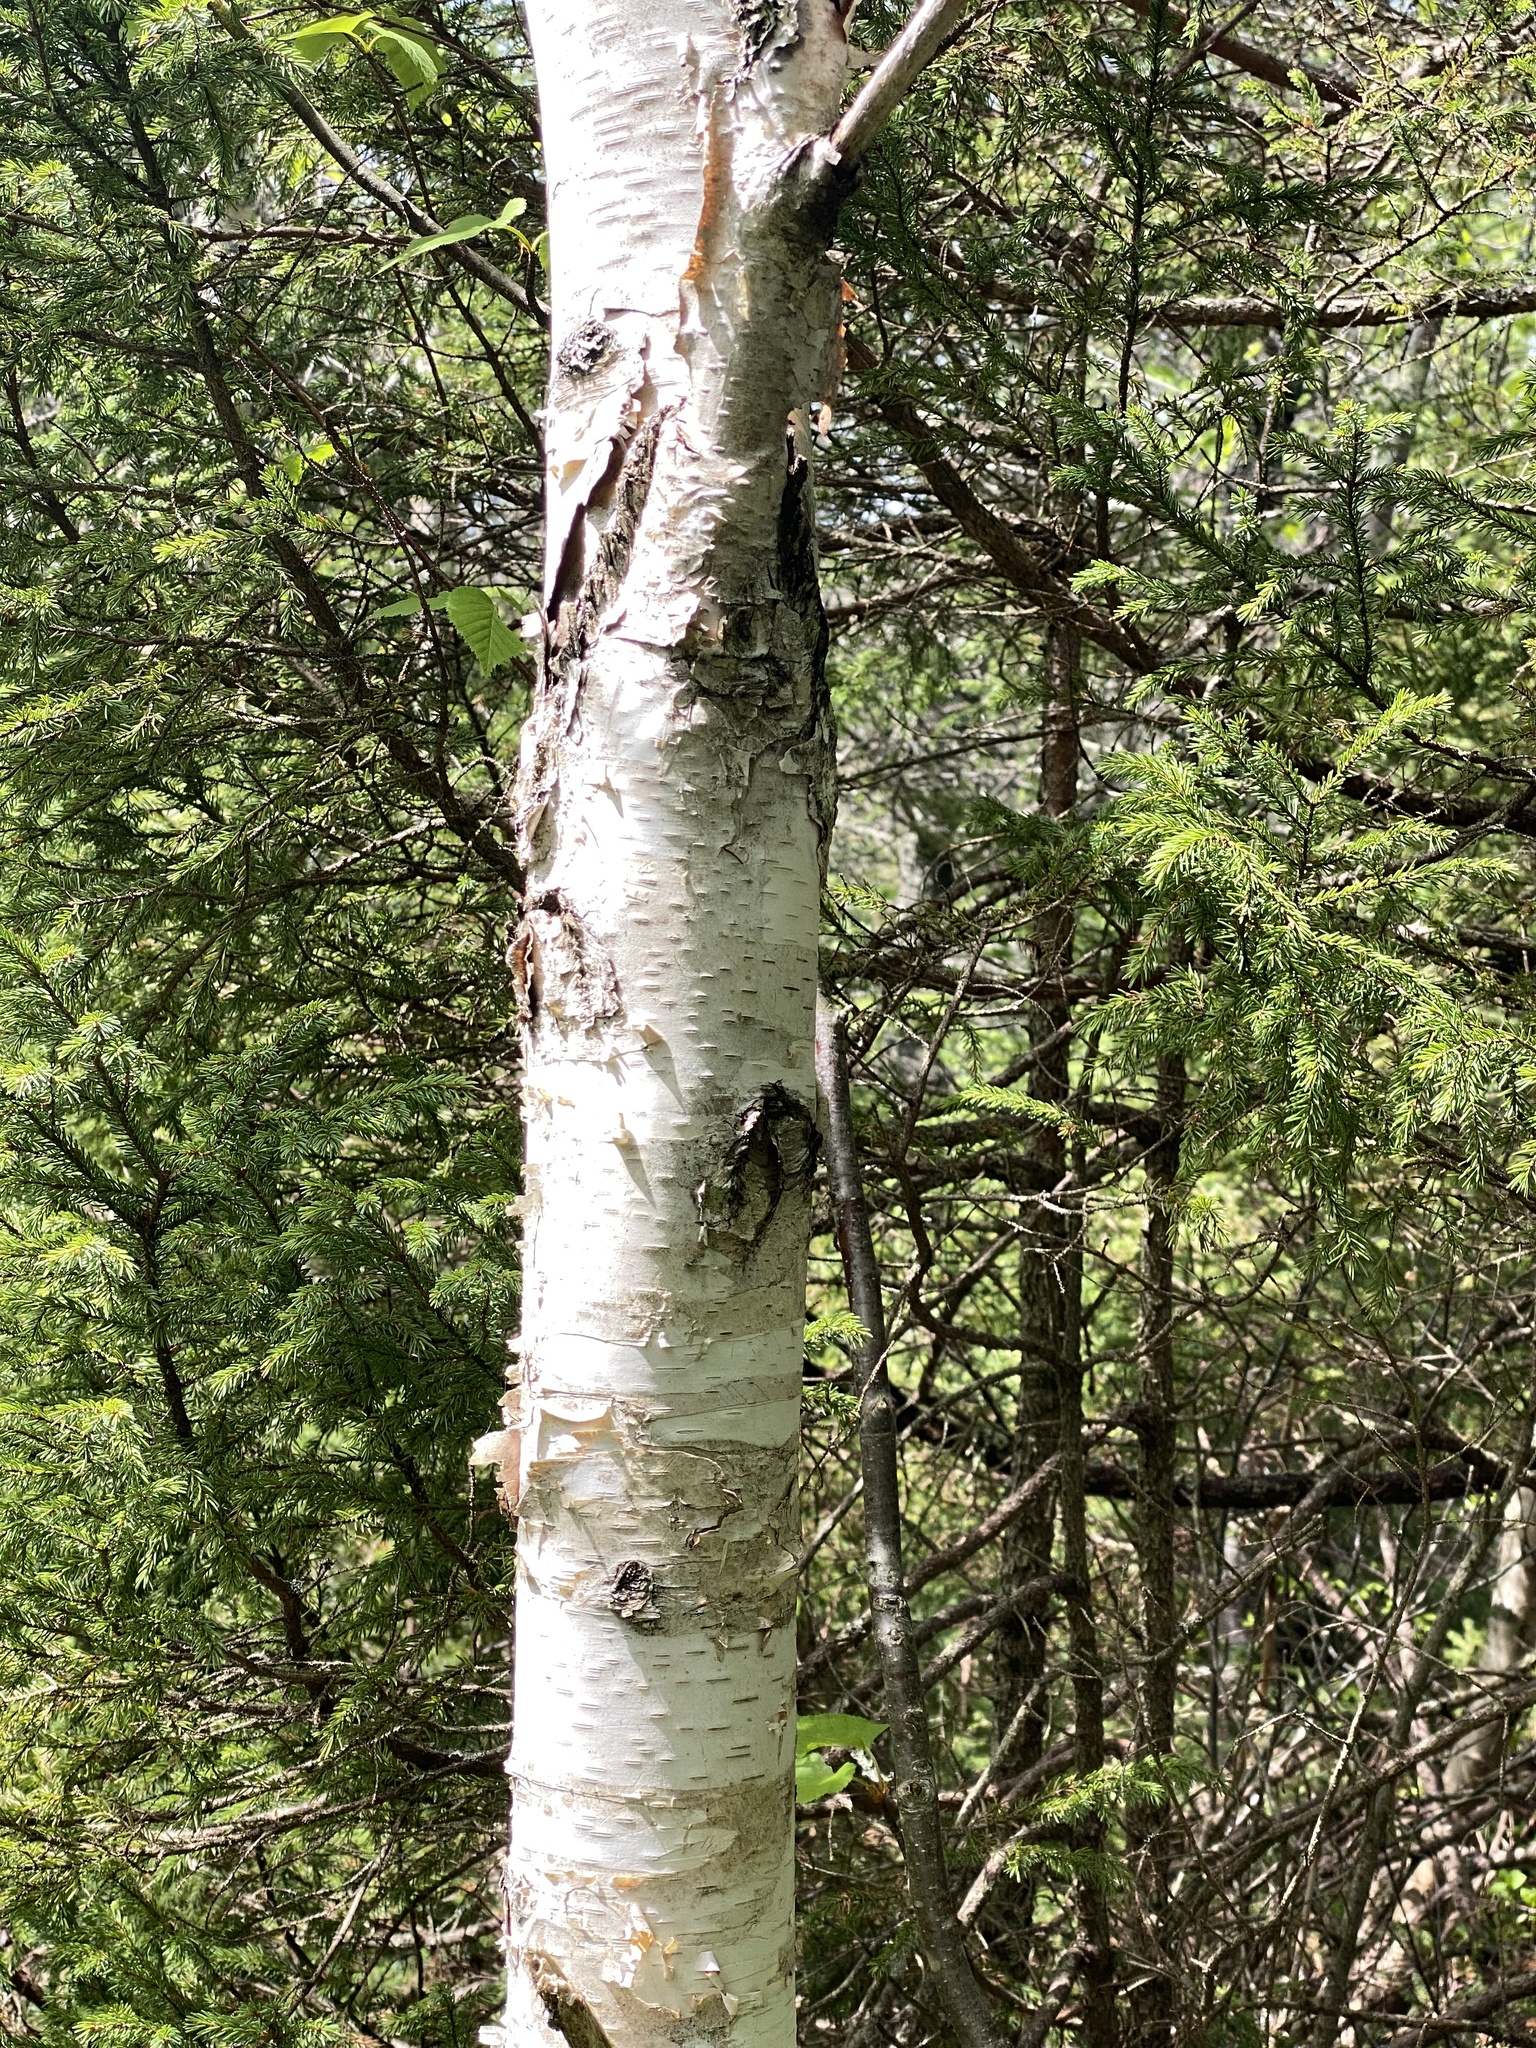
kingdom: Plantae
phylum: Tracheophyta
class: Magnoliopsida
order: Fagales
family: Betulaceae
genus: Betula
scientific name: Betula papyrifera
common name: Paper birch
